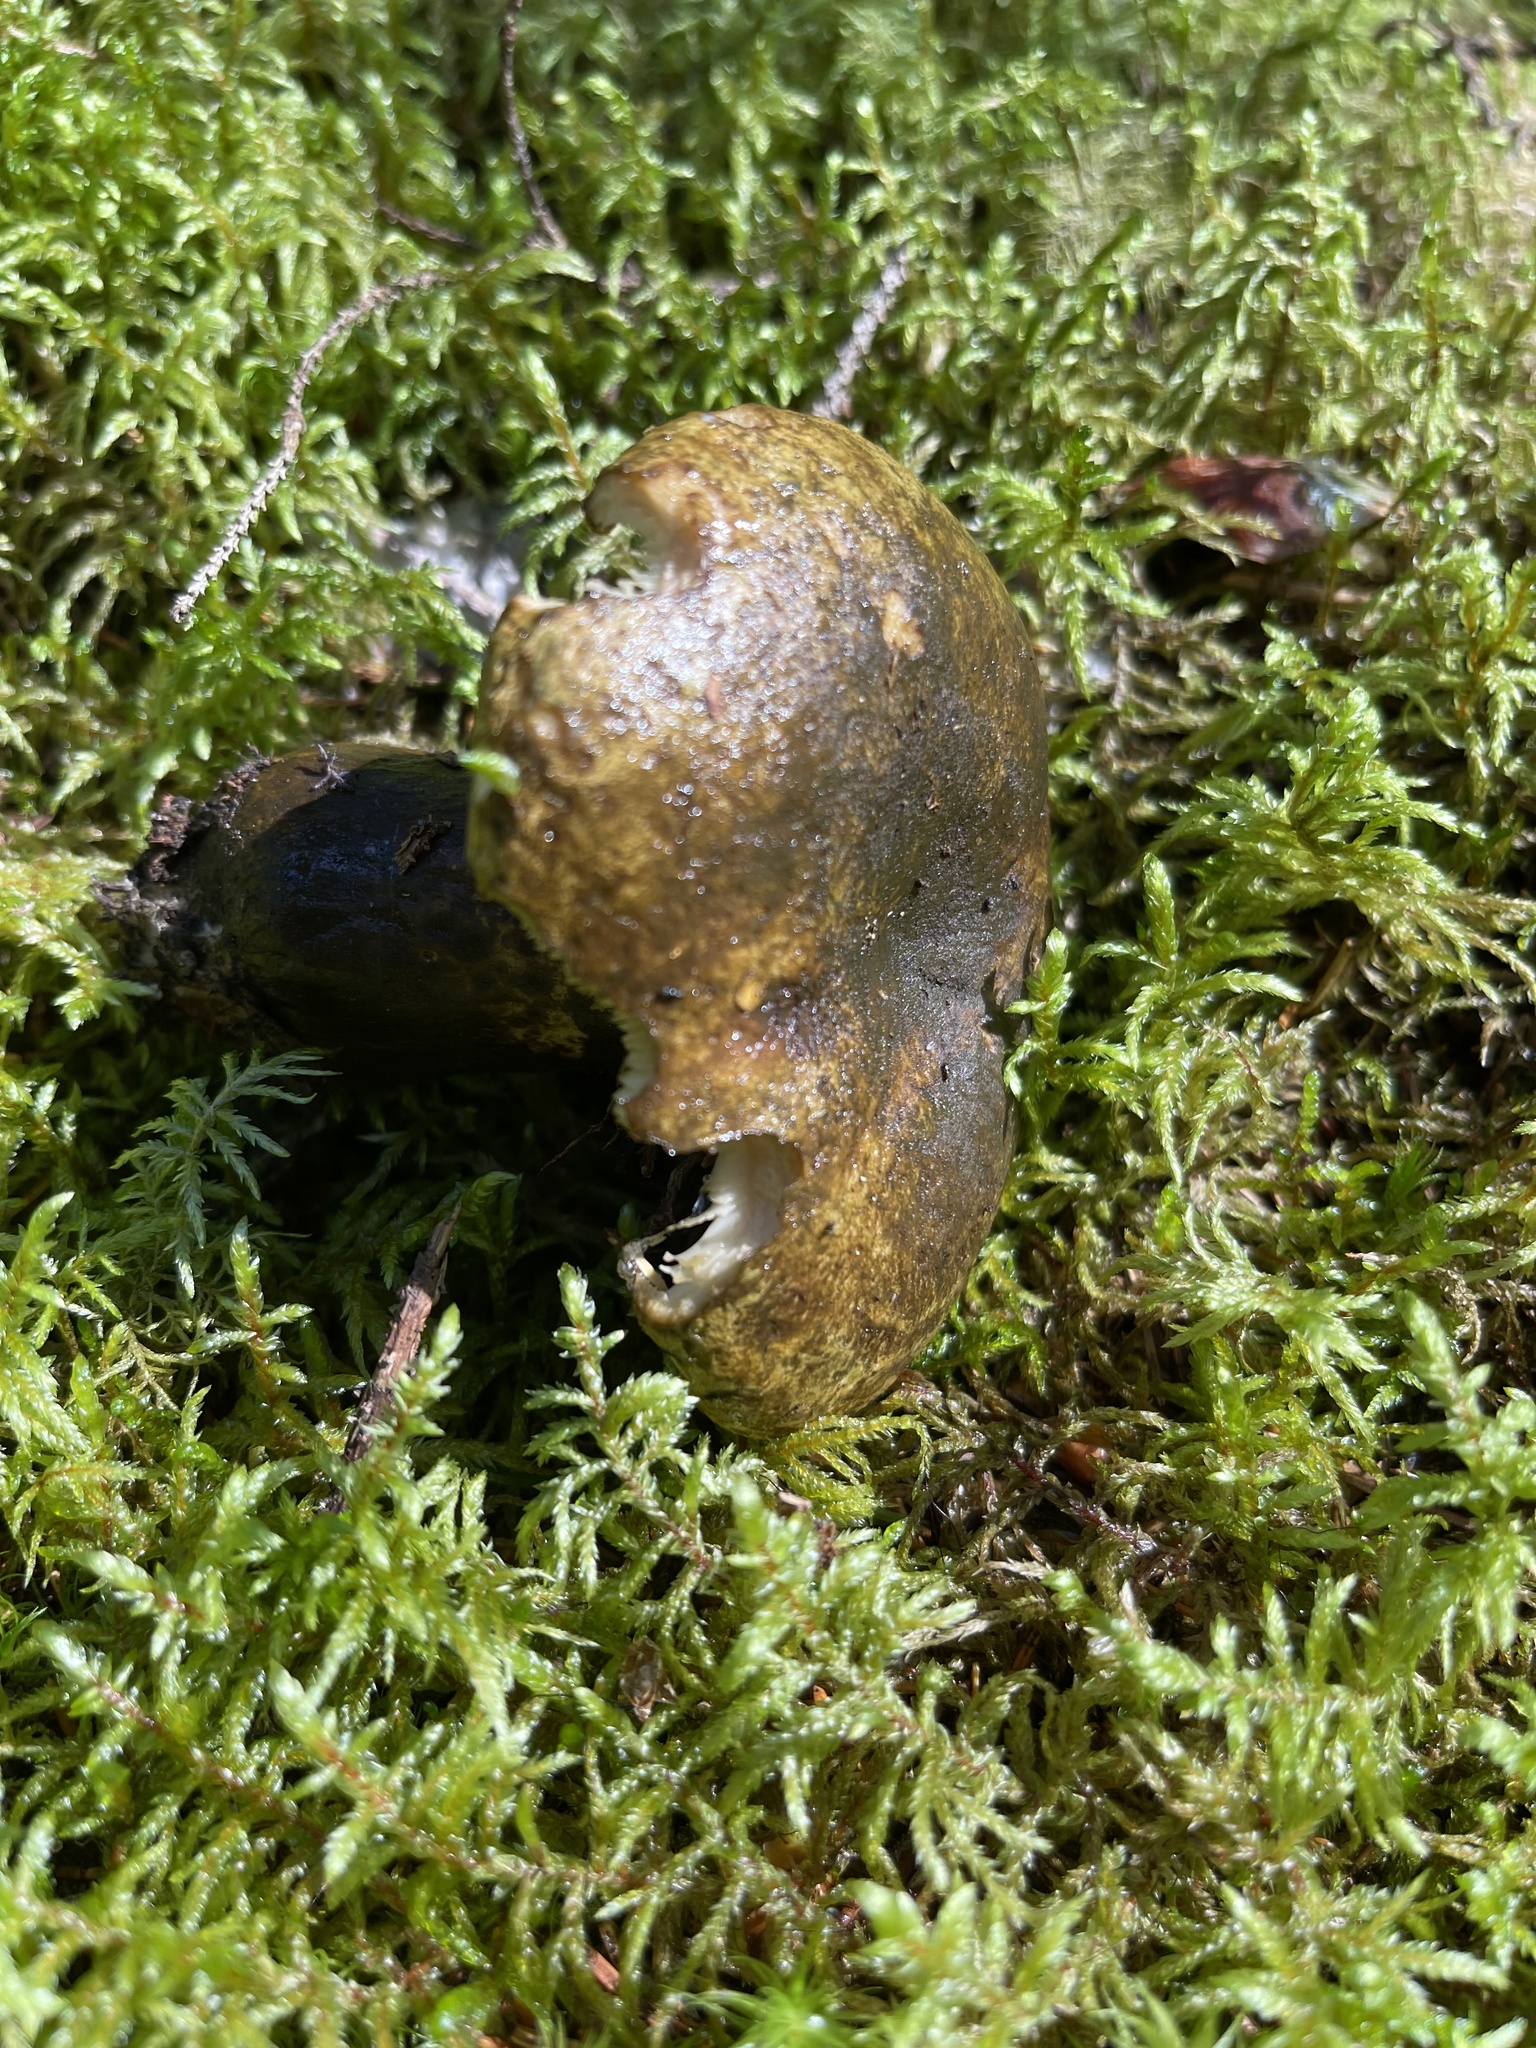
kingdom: Fungi
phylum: Basidiomycota
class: Agaricomycetes
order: Russulales
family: Russulaceae
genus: Lactarius
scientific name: Lactarius turpis
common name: Ugly milk-cap
